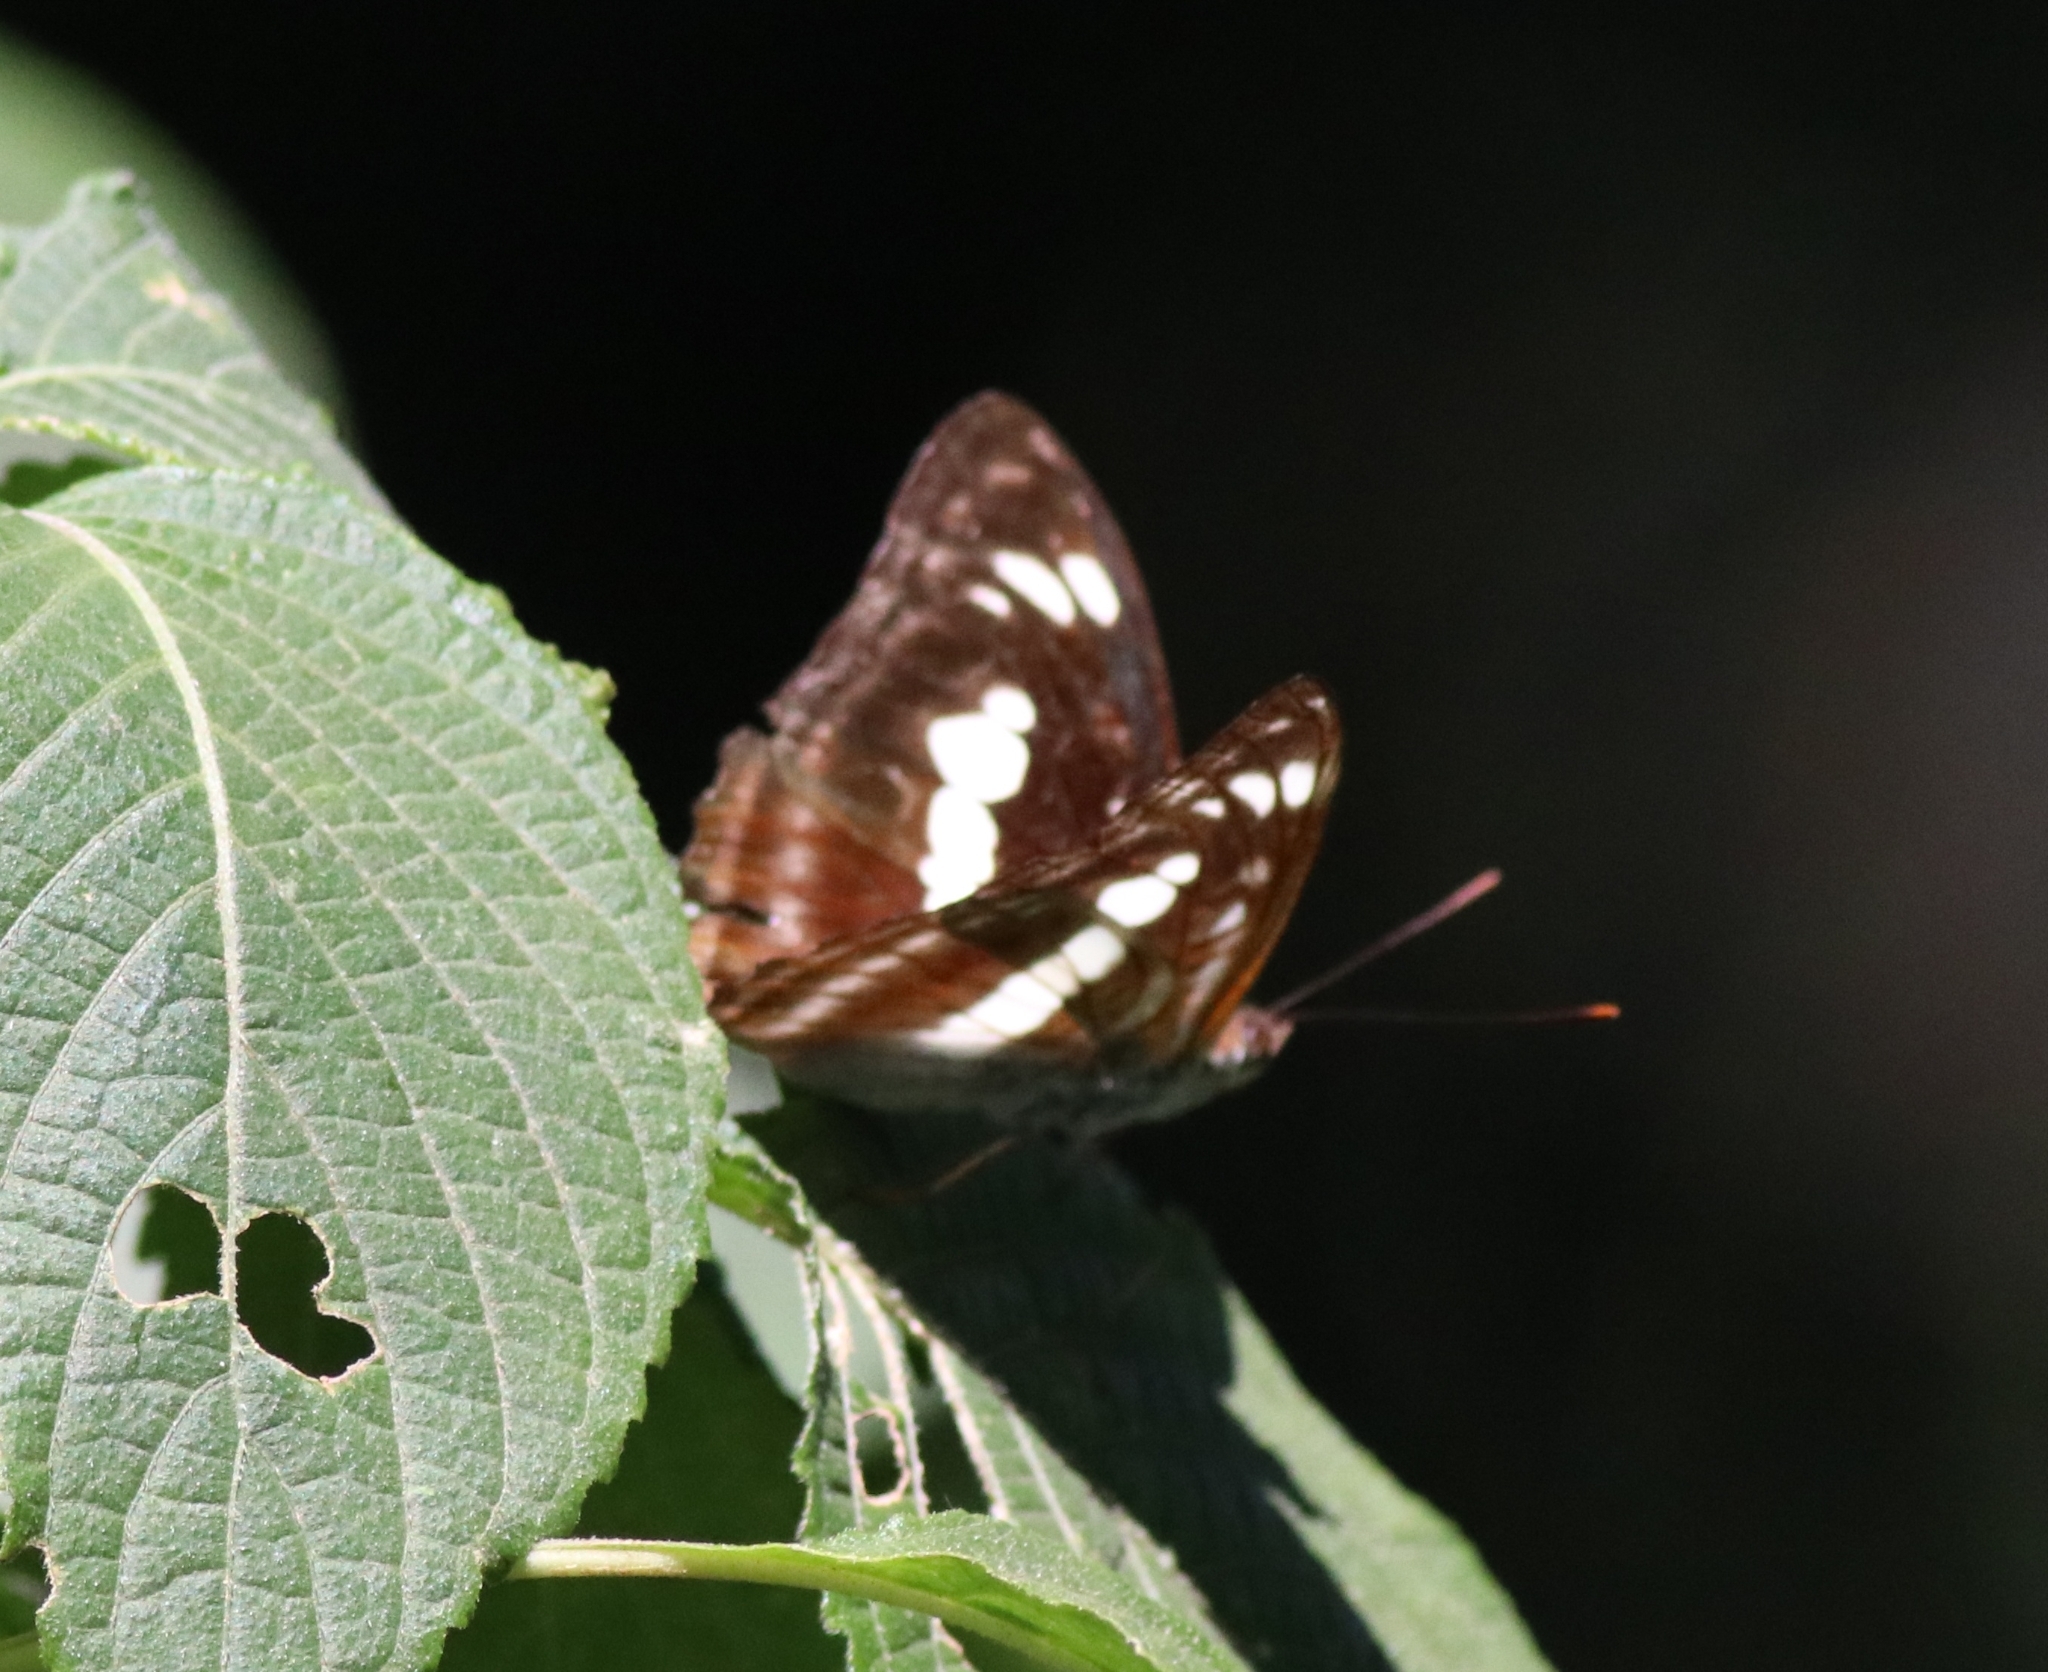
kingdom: Animalia
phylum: Arthropoda
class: Insecta
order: Lepidoptera
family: Nymphalidae
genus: Parathyma
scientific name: Parathyma selenophora
